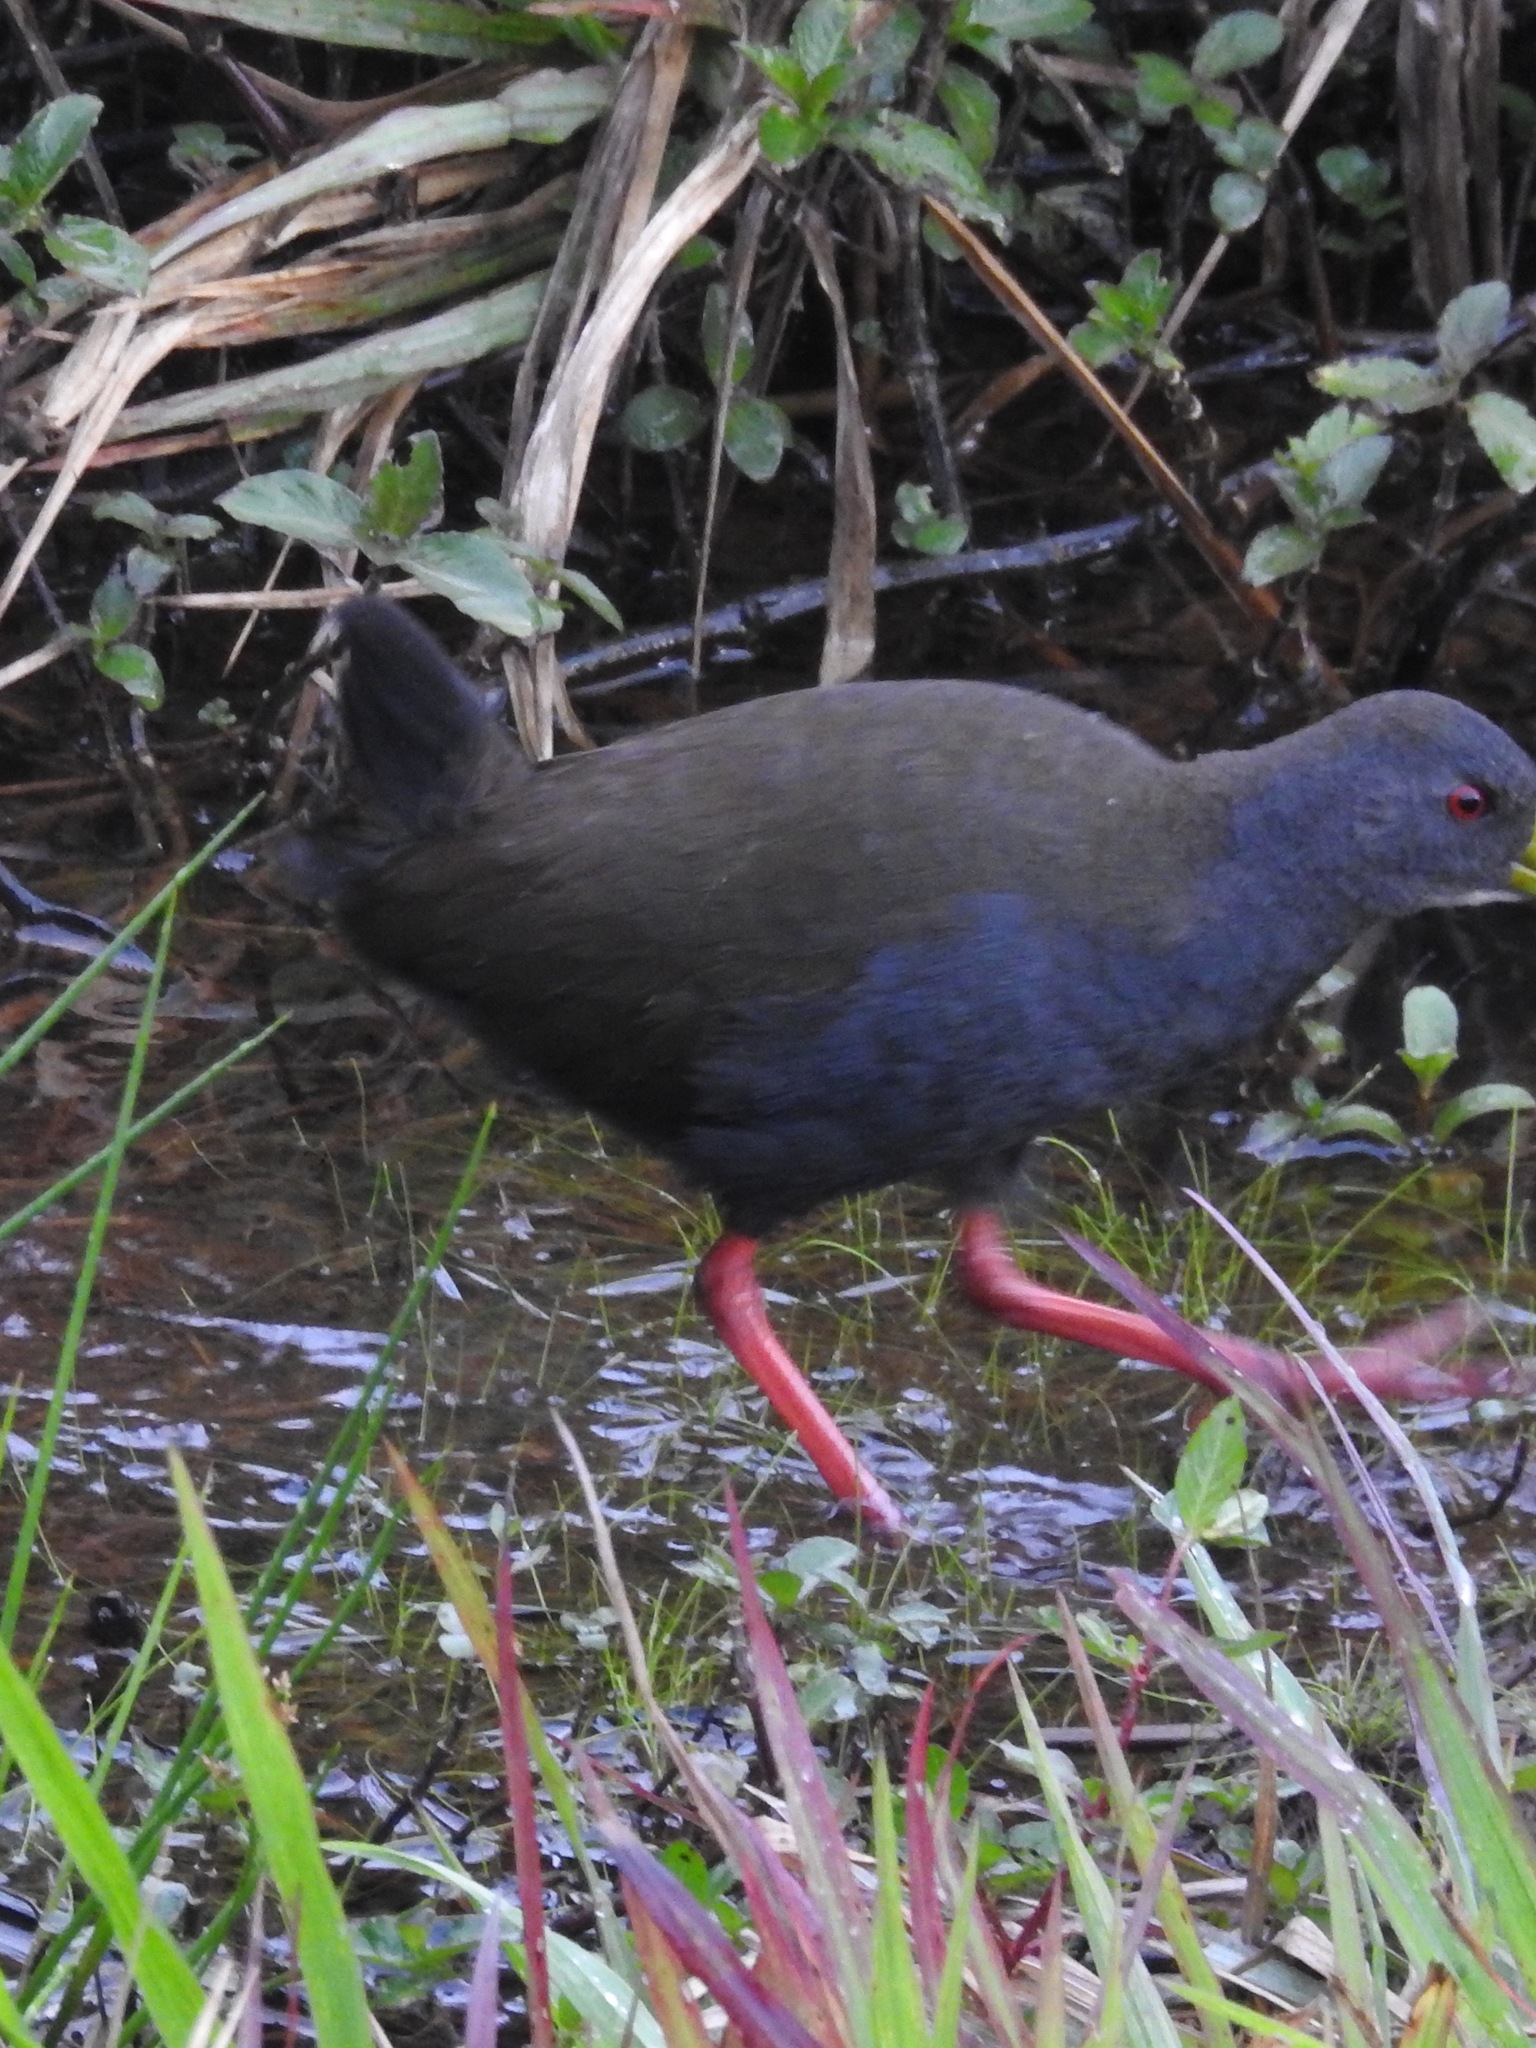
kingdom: Animalia
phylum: Chordata
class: Aves
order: Gruiformes
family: Rallidae
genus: Pardirallus
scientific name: Pardirallus nigricans
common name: Blackish rail
